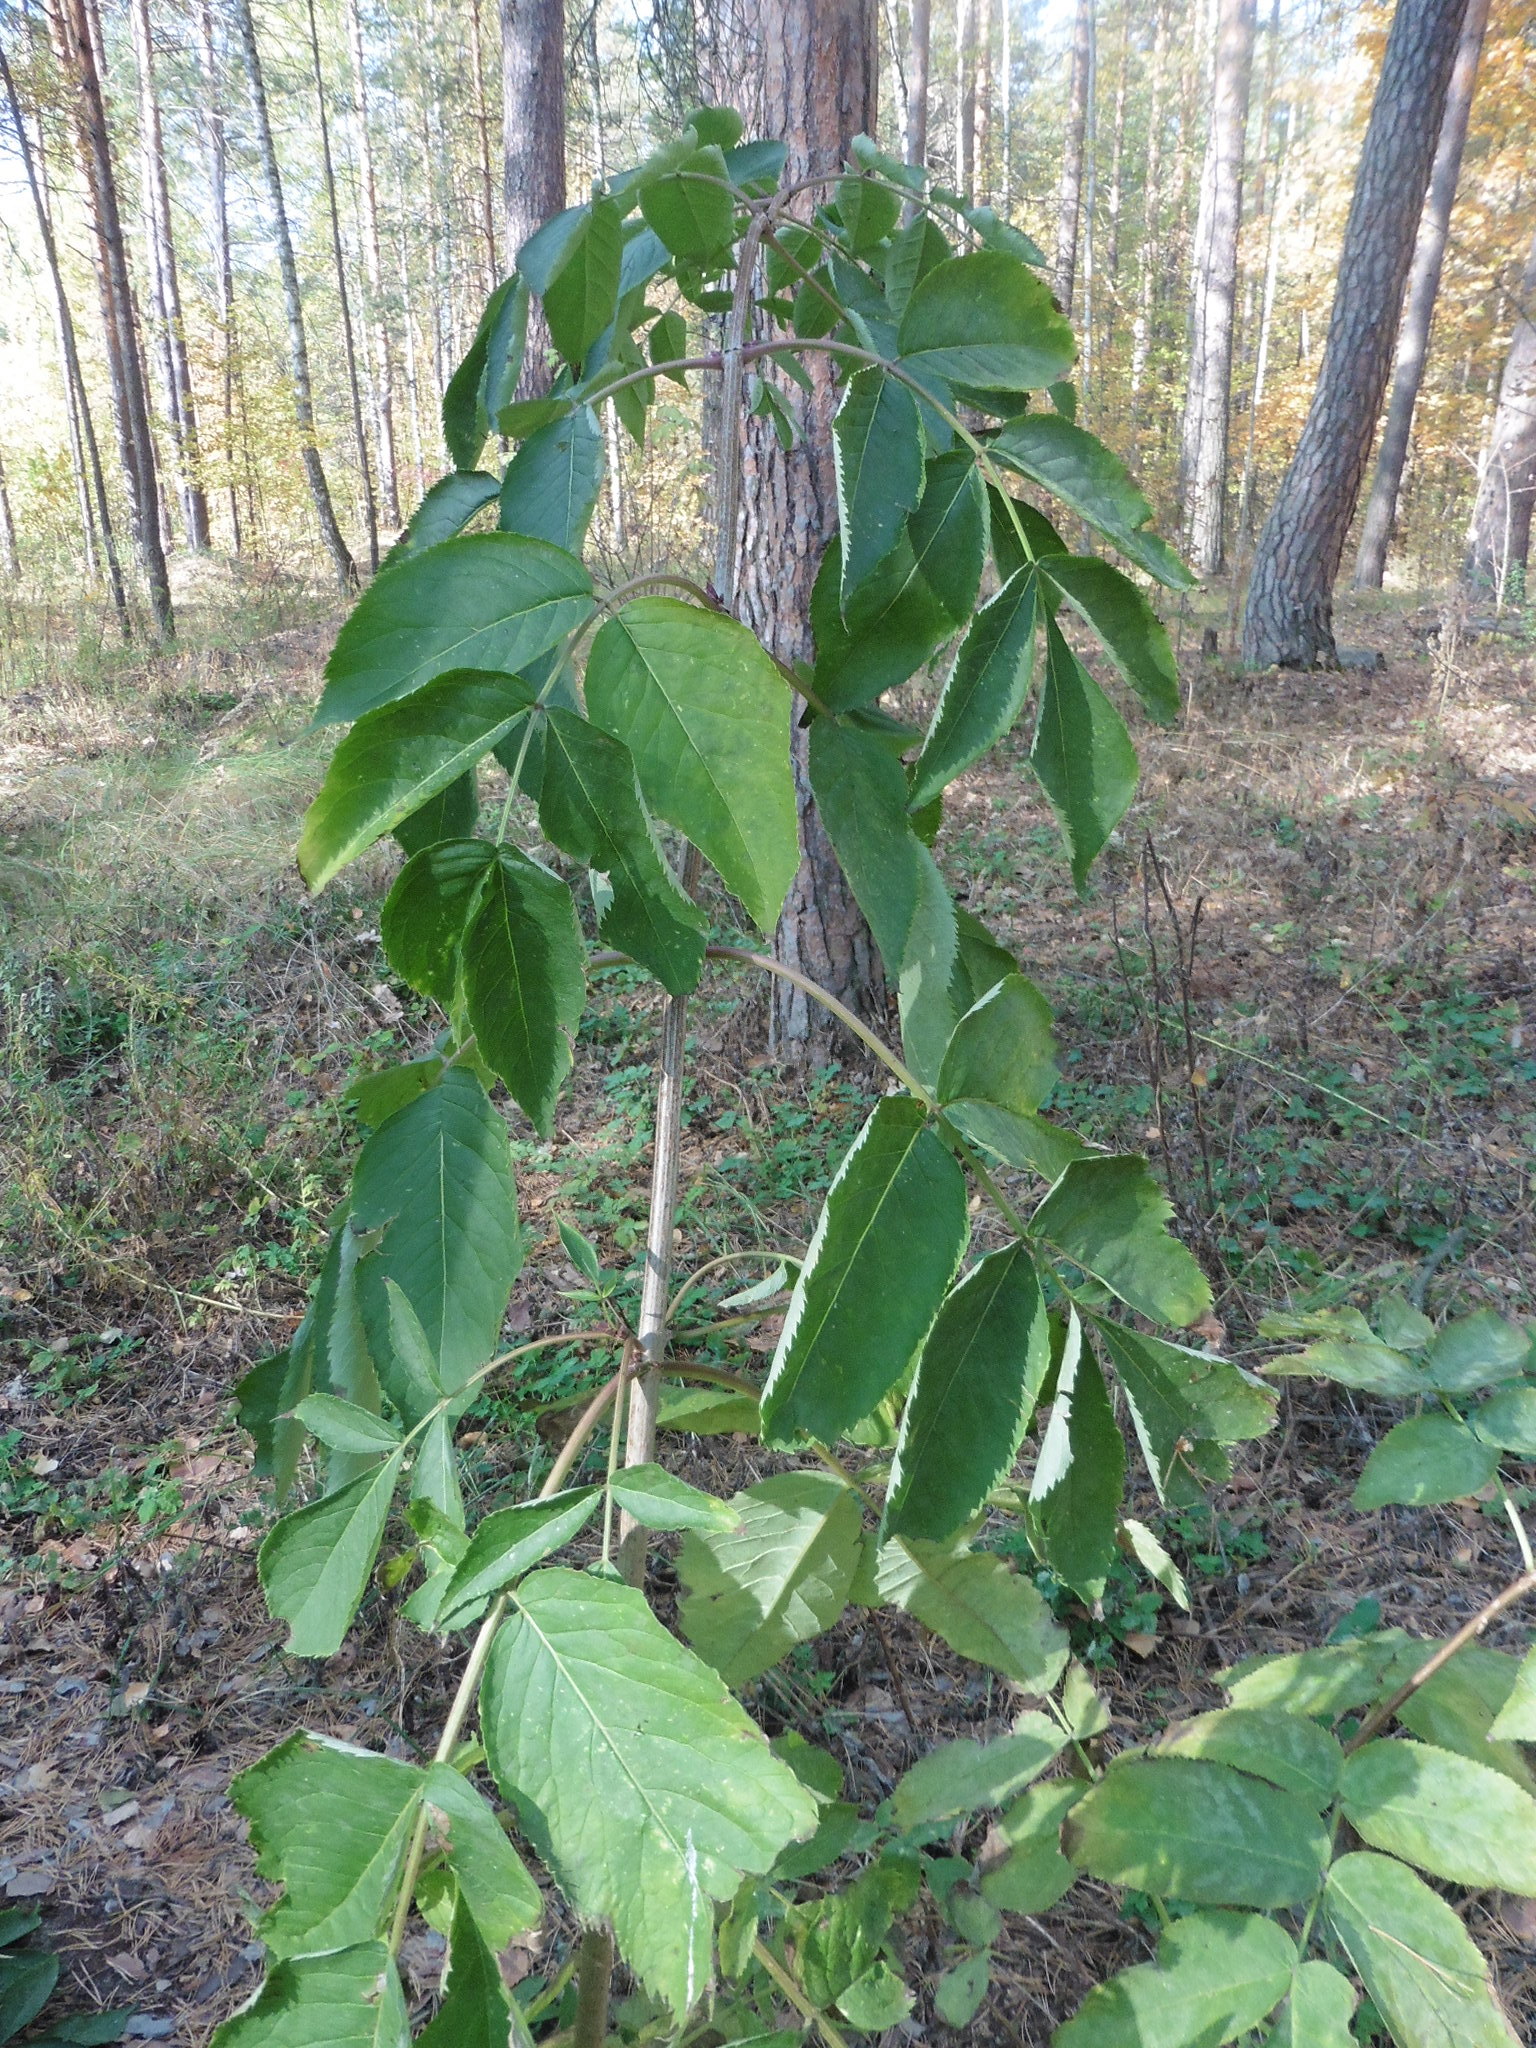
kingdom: Plantae
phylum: Tracheophyta
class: Magnoliopsida
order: Dipsacales
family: Viburnaceae
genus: Sambucus
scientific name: Sambucus racemosa
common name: Red-berried elder
